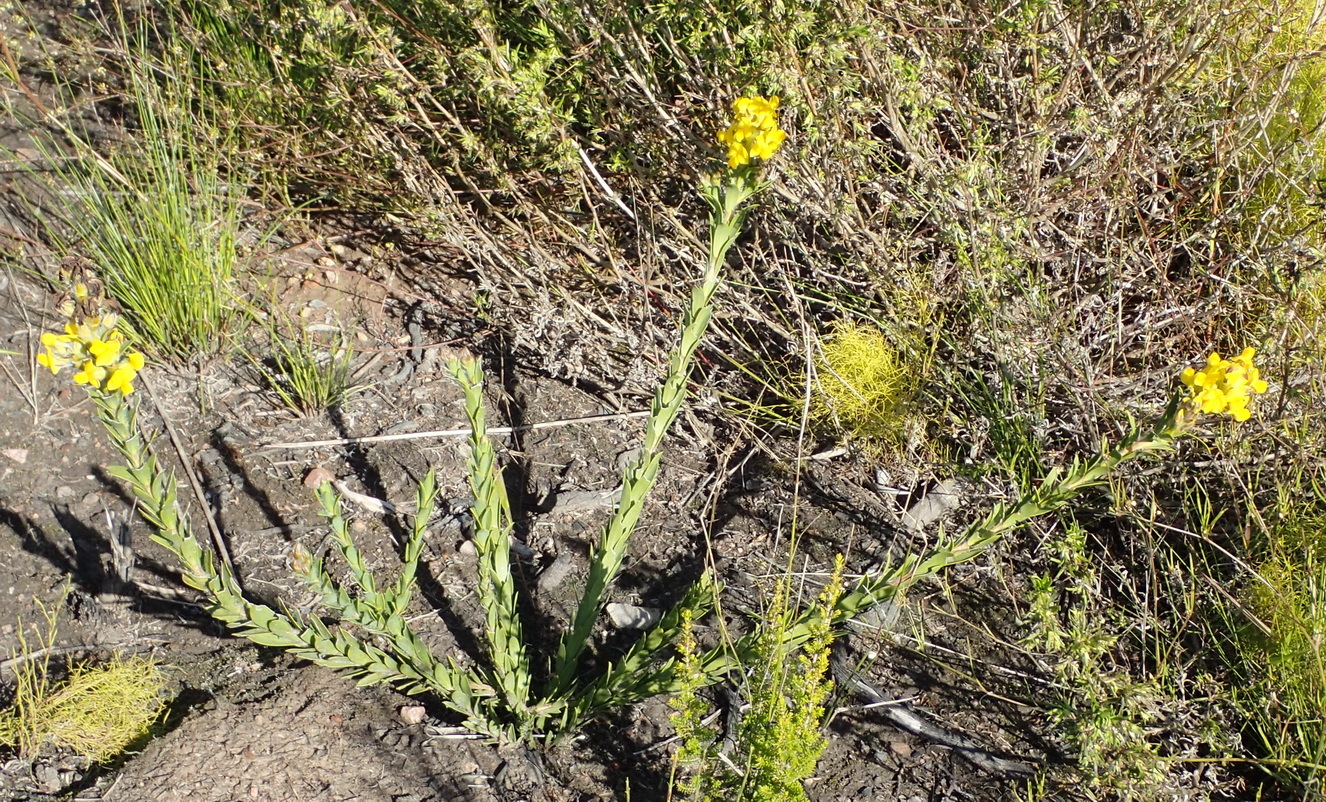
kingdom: Plantae
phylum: Tracheophyta
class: Magnoliopsida
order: Fabales
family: Fabaceae
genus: Liparia
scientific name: Liparia hirsuta
